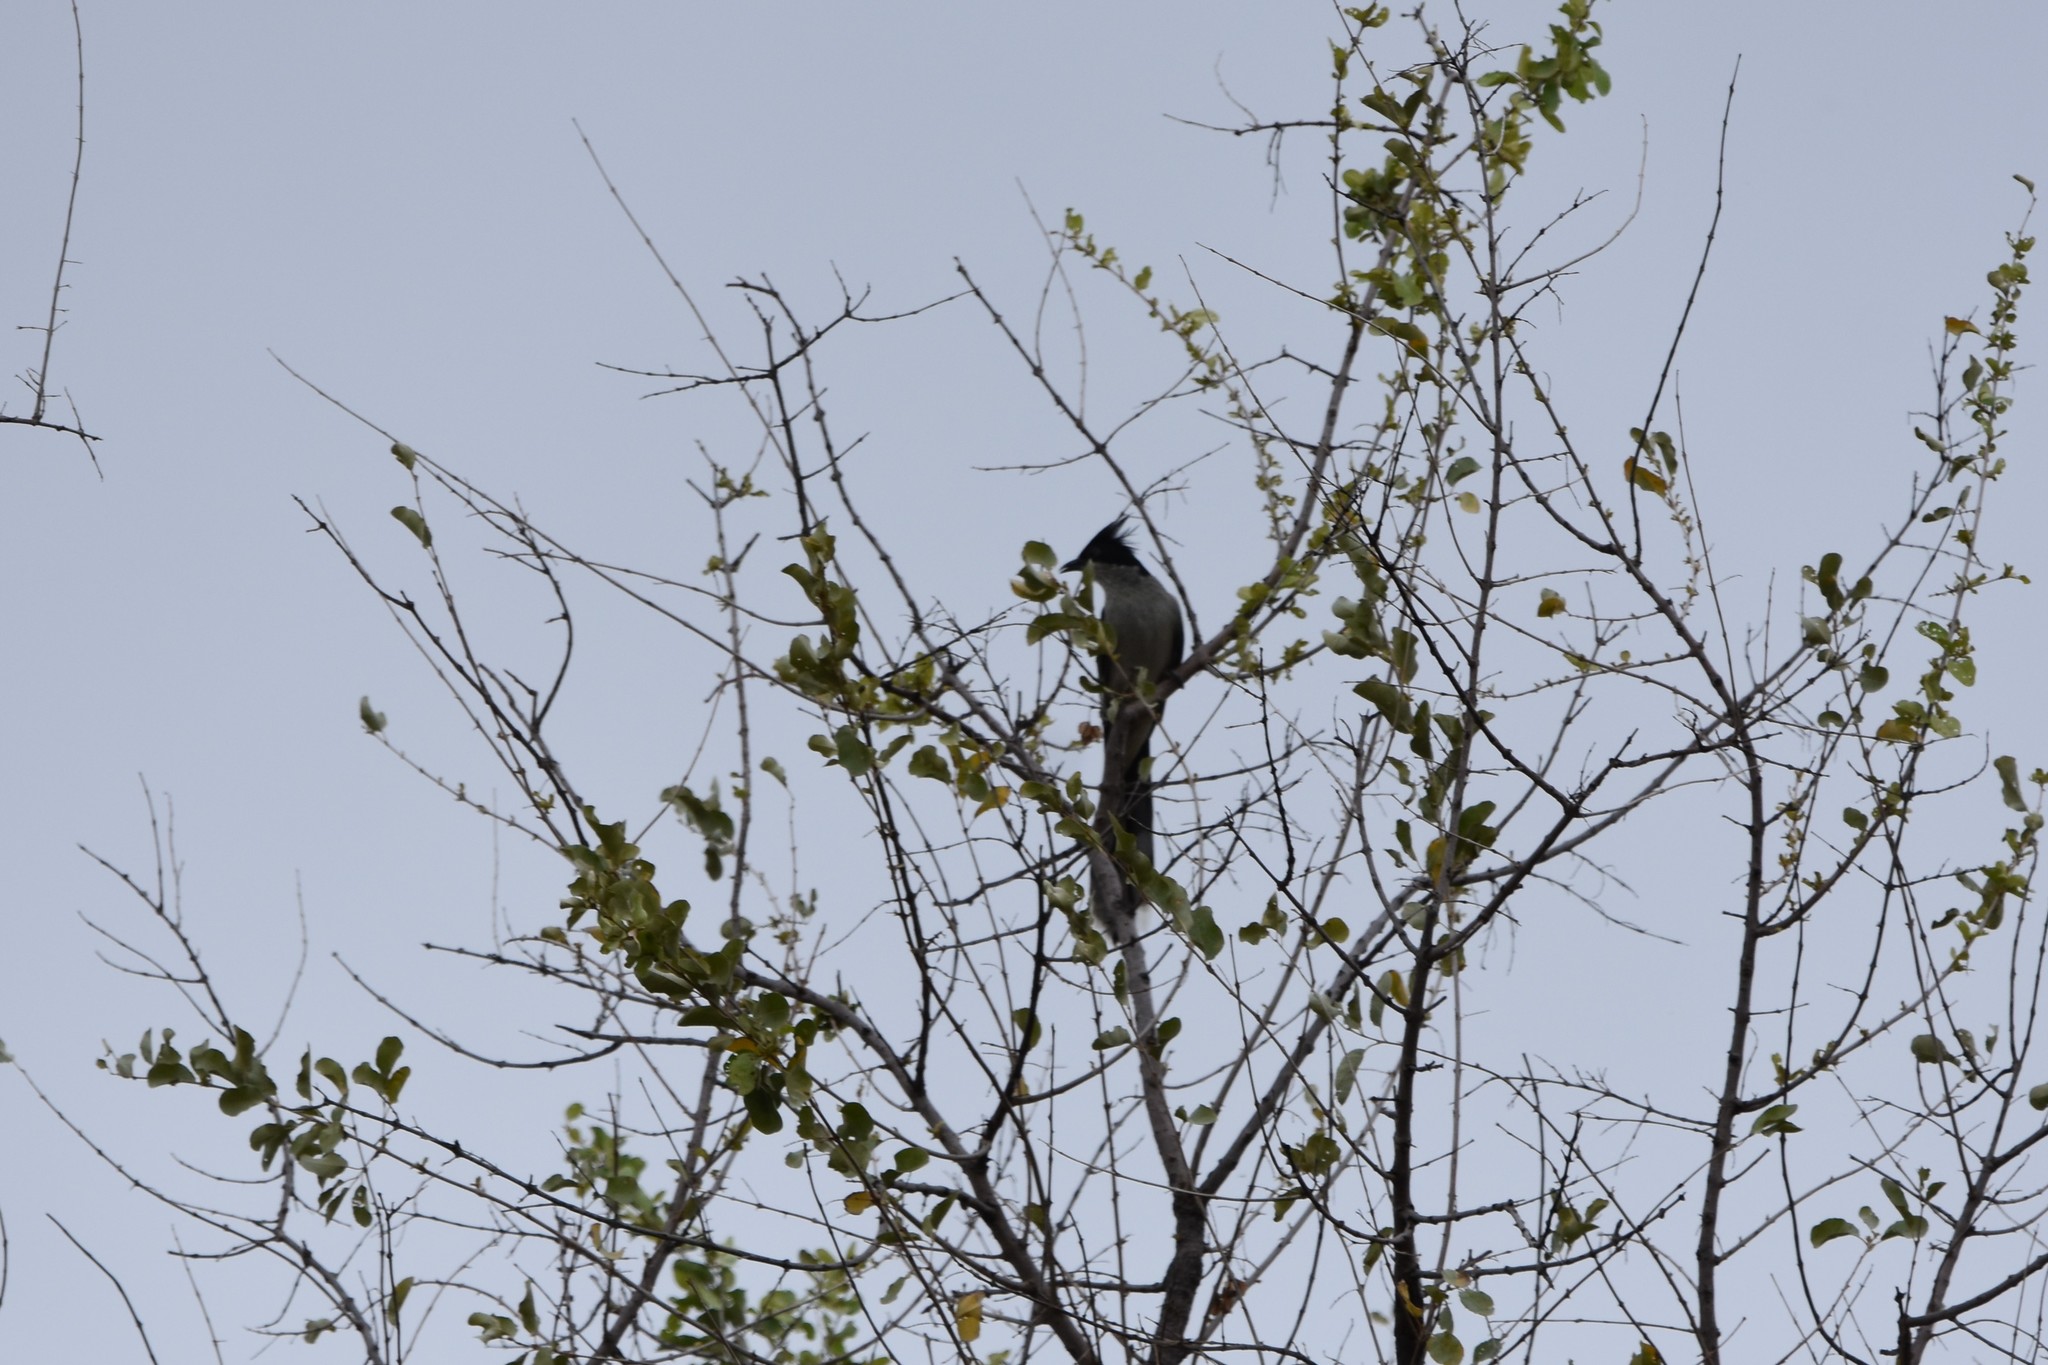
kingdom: Animalia
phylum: Chordata
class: Aves
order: Cuculiformes
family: Cuculidae
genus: Clamator
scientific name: Clamator jacobinus
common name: Jacobin cuckoo
